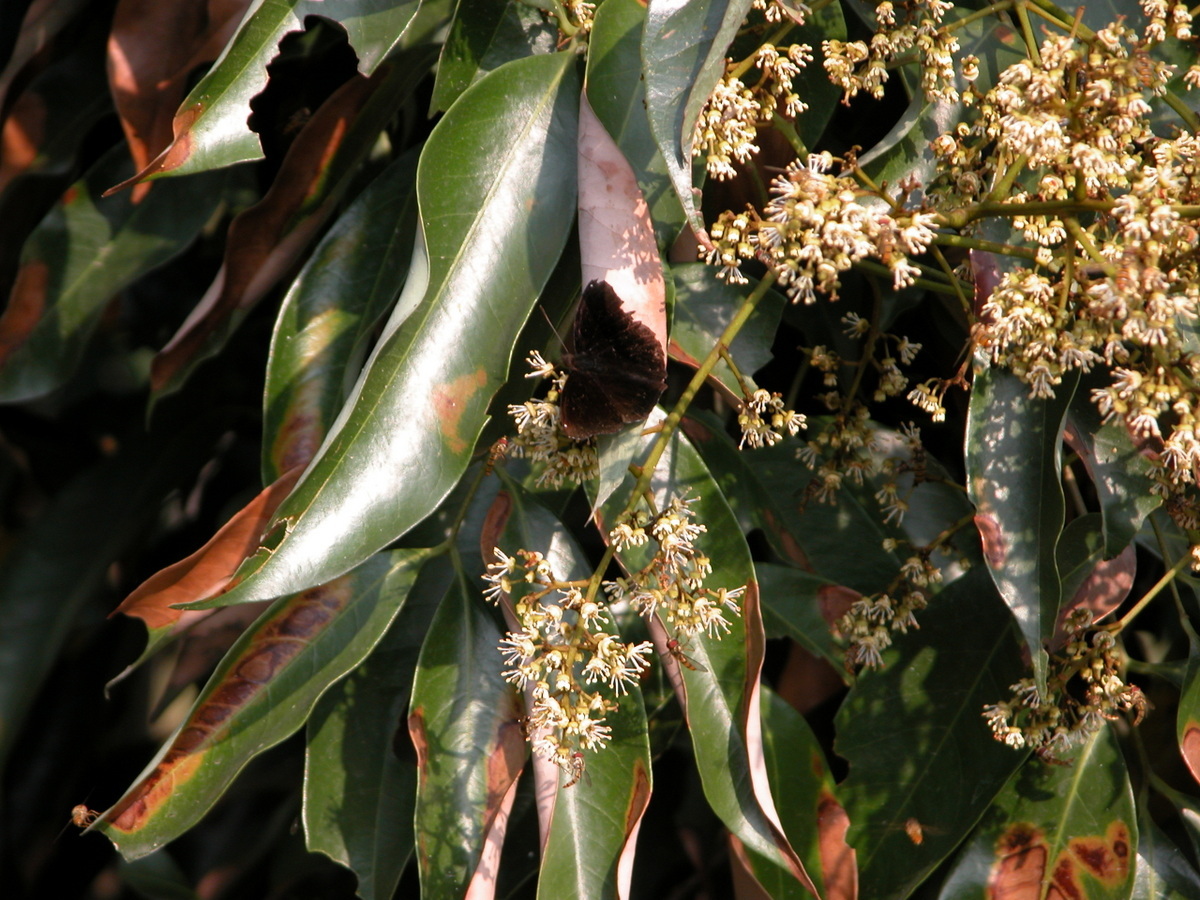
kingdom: Animalia
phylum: Arthropoda
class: Insecta
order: Lepidoptera
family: Nymphalidae
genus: Apatura
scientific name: Apatura Rohana spec
